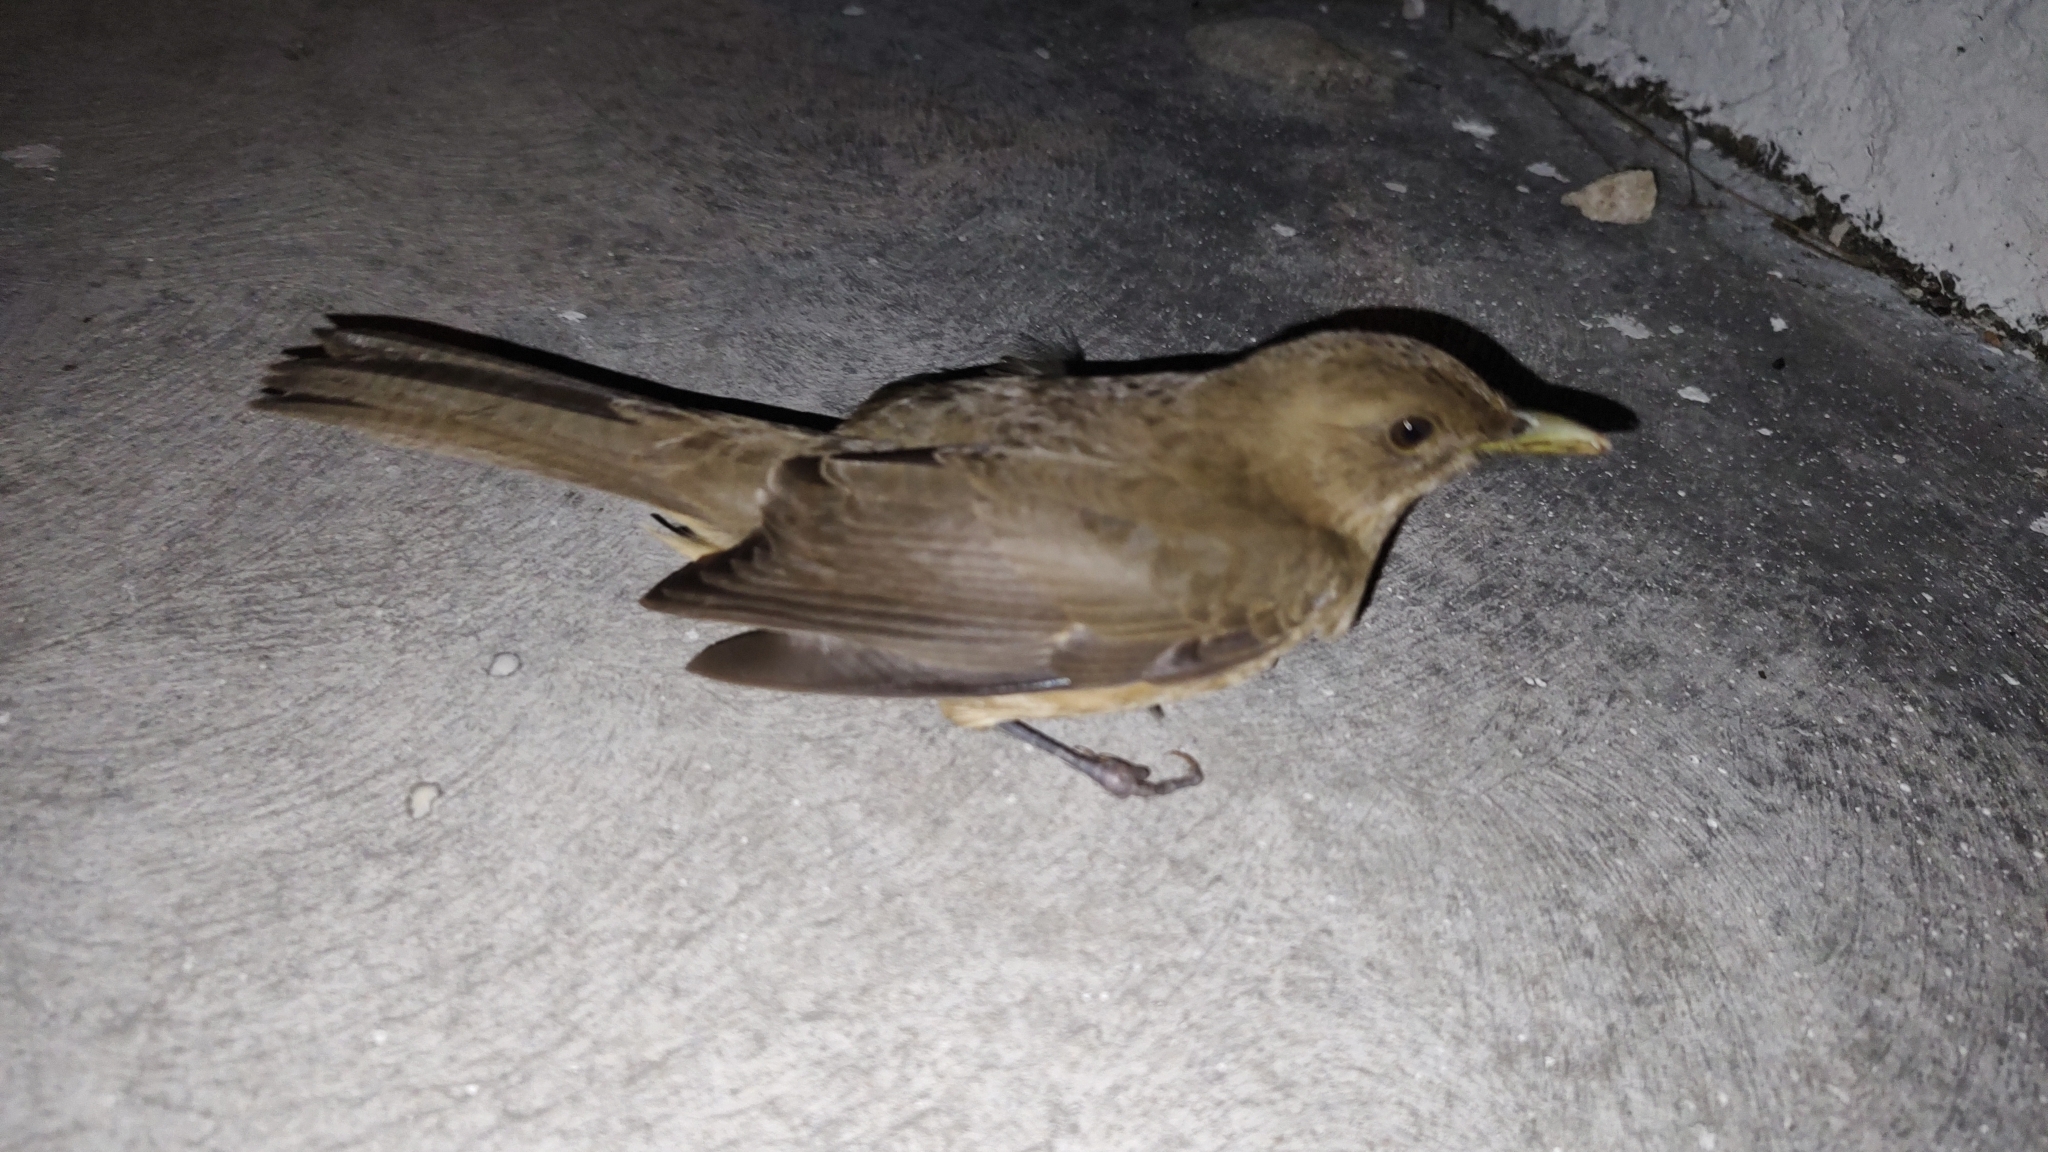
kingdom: Animalia
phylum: Chordata
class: Aves
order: Passeriformes
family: Turdidae
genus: Turdus
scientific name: Turdus grayi
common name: Clay-colored thrush
